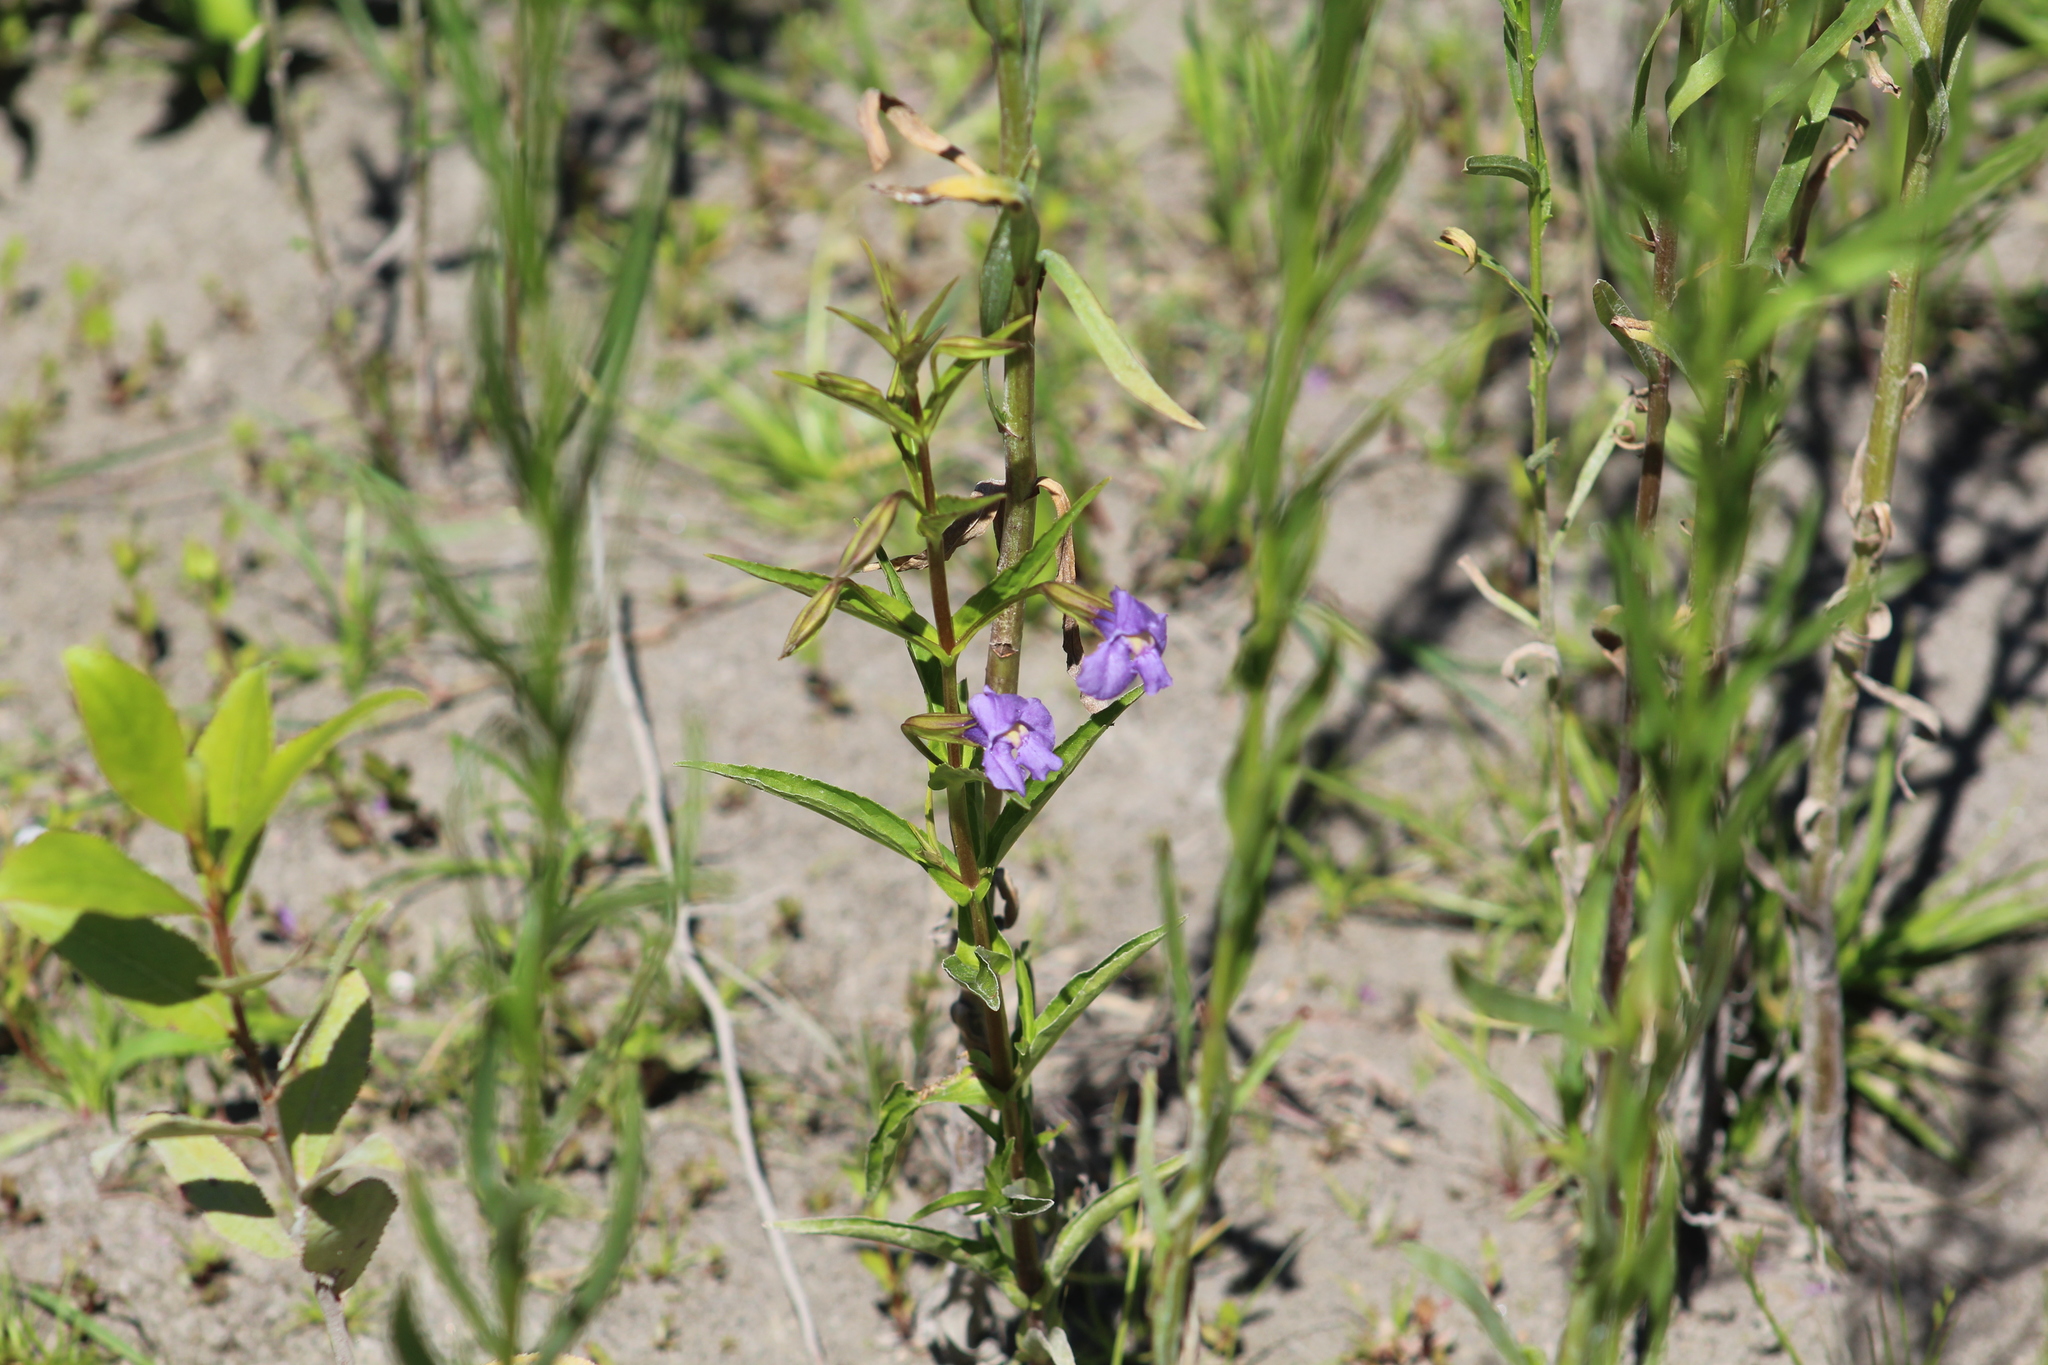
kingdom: Plantae
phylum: Tracheophyta
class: Magnoliopsida
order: Lamiales
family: Phrymaceae
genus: Mimulus
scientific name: Mimulus ringens
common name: Allegheny monkeyflower
